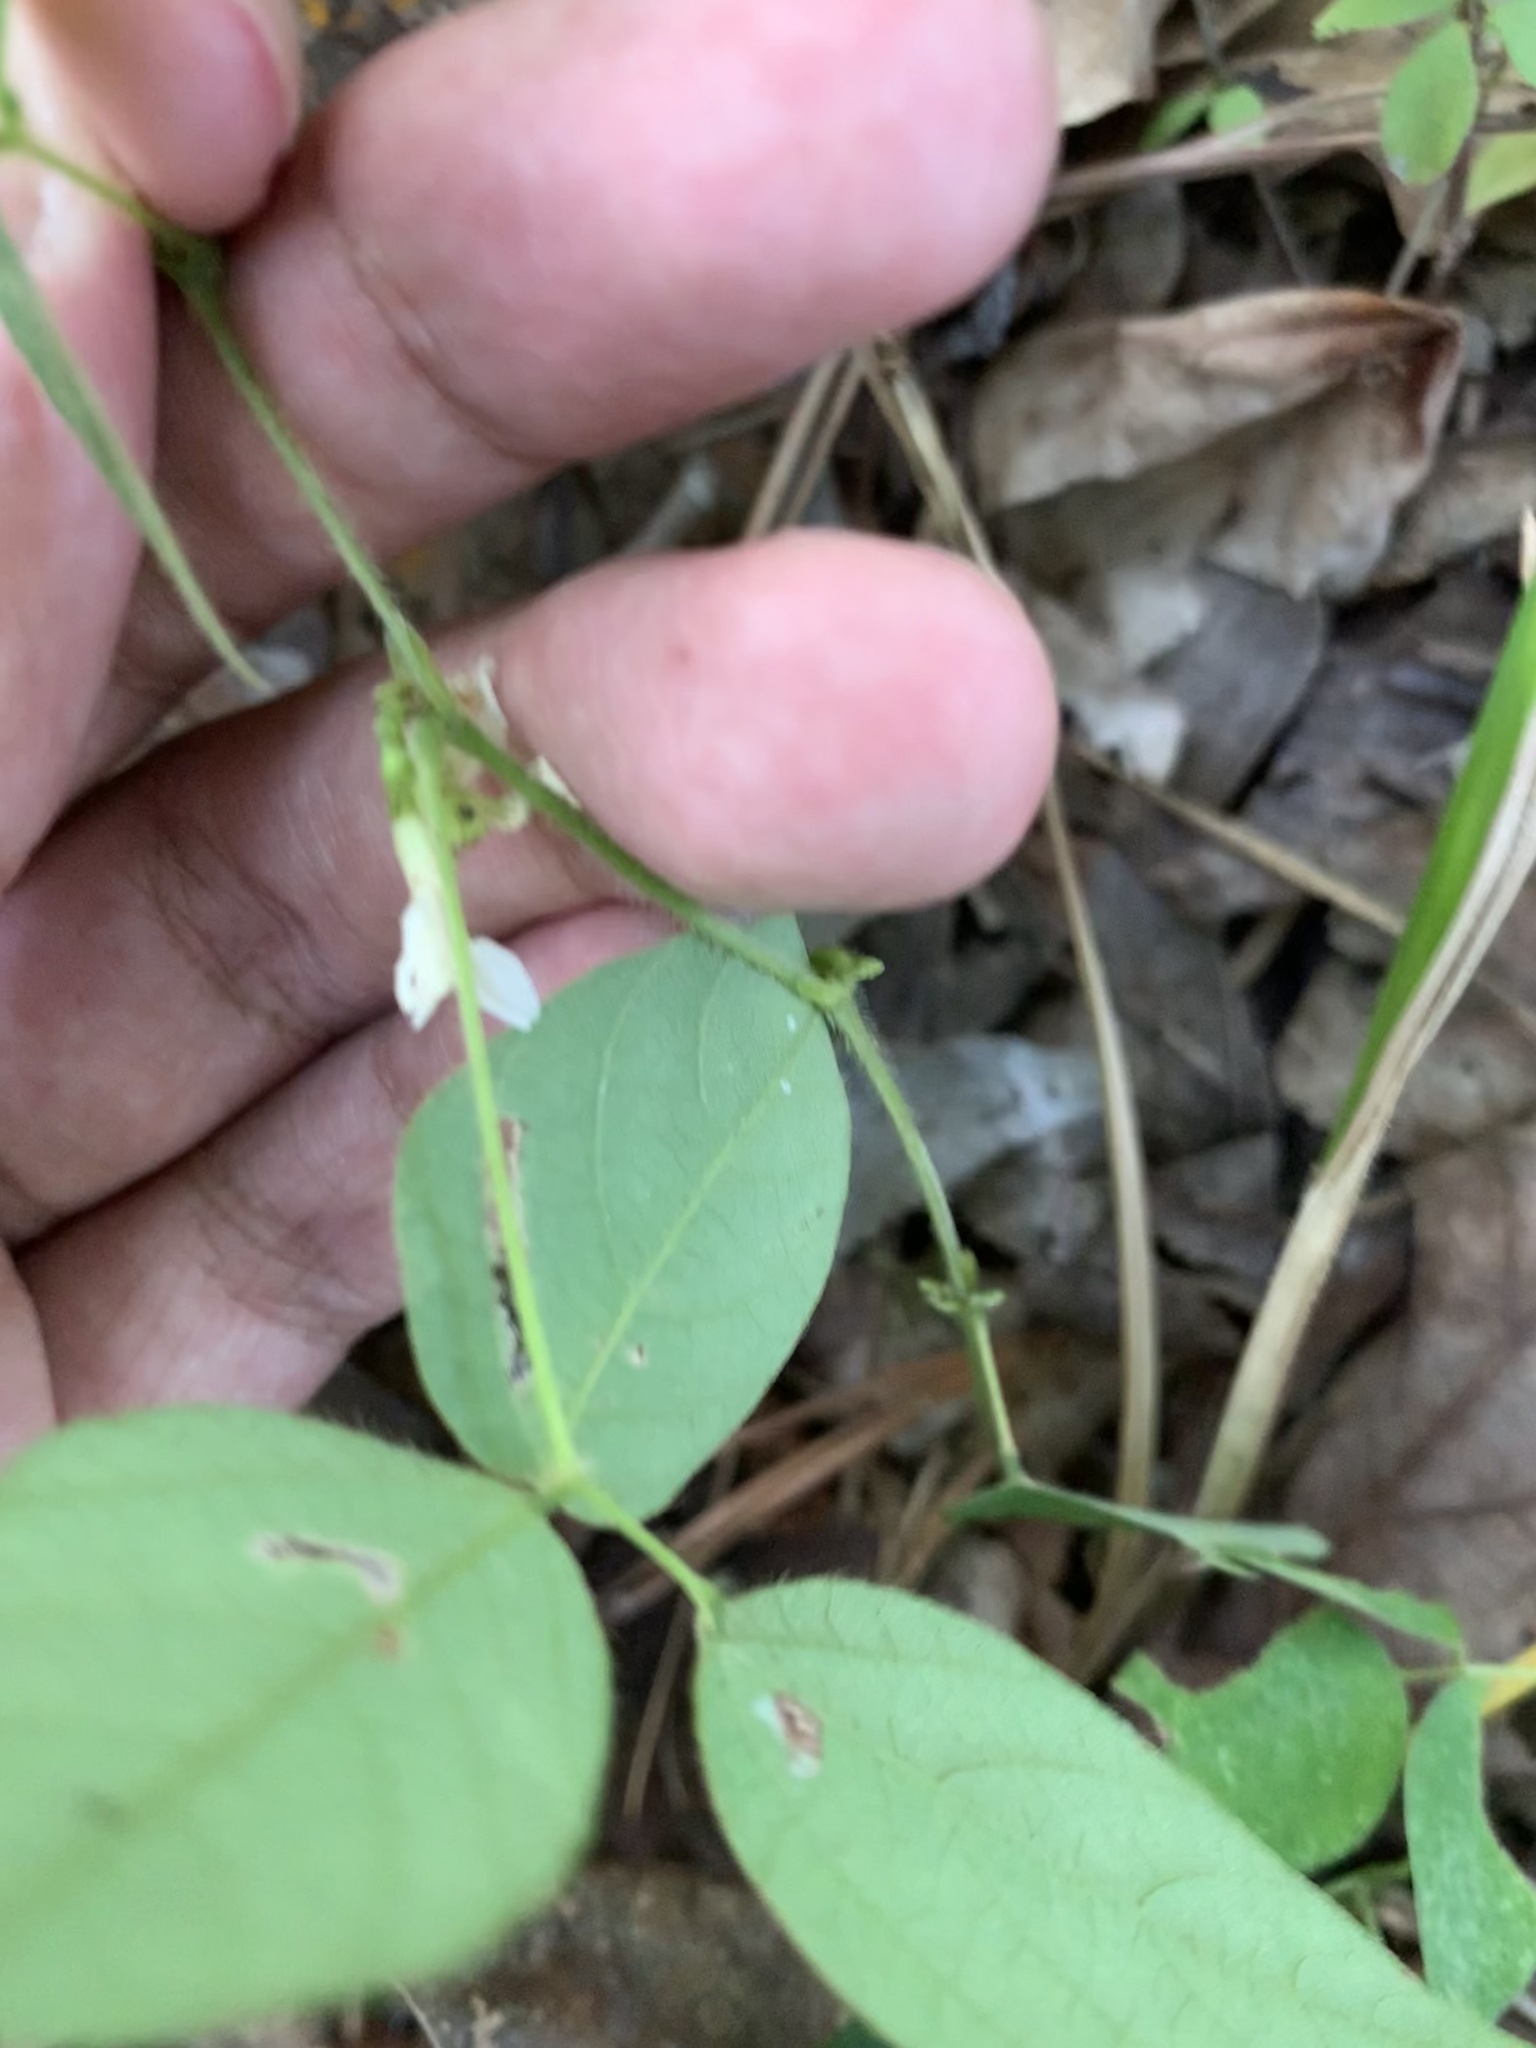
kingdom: Plantae
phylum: Tracheophyta
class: Magnoliopsida
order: Fabales
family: Fabaceae
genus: Amphicarpaea
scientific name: Amphicarpaea bracteata
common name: American hog peanut
